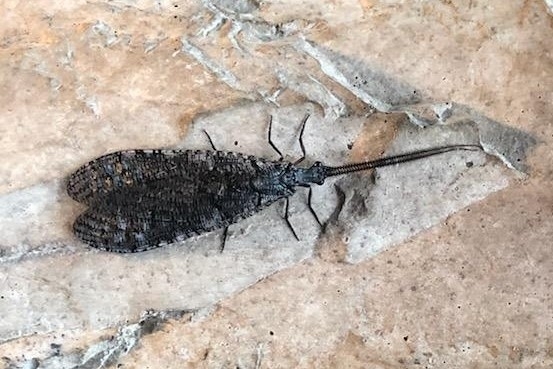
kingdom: Animalia
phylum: Arthropoda
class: Insecta
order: Megaloptera
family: Corydalidae
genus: Neohermes
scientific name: Neohermes filicornis
